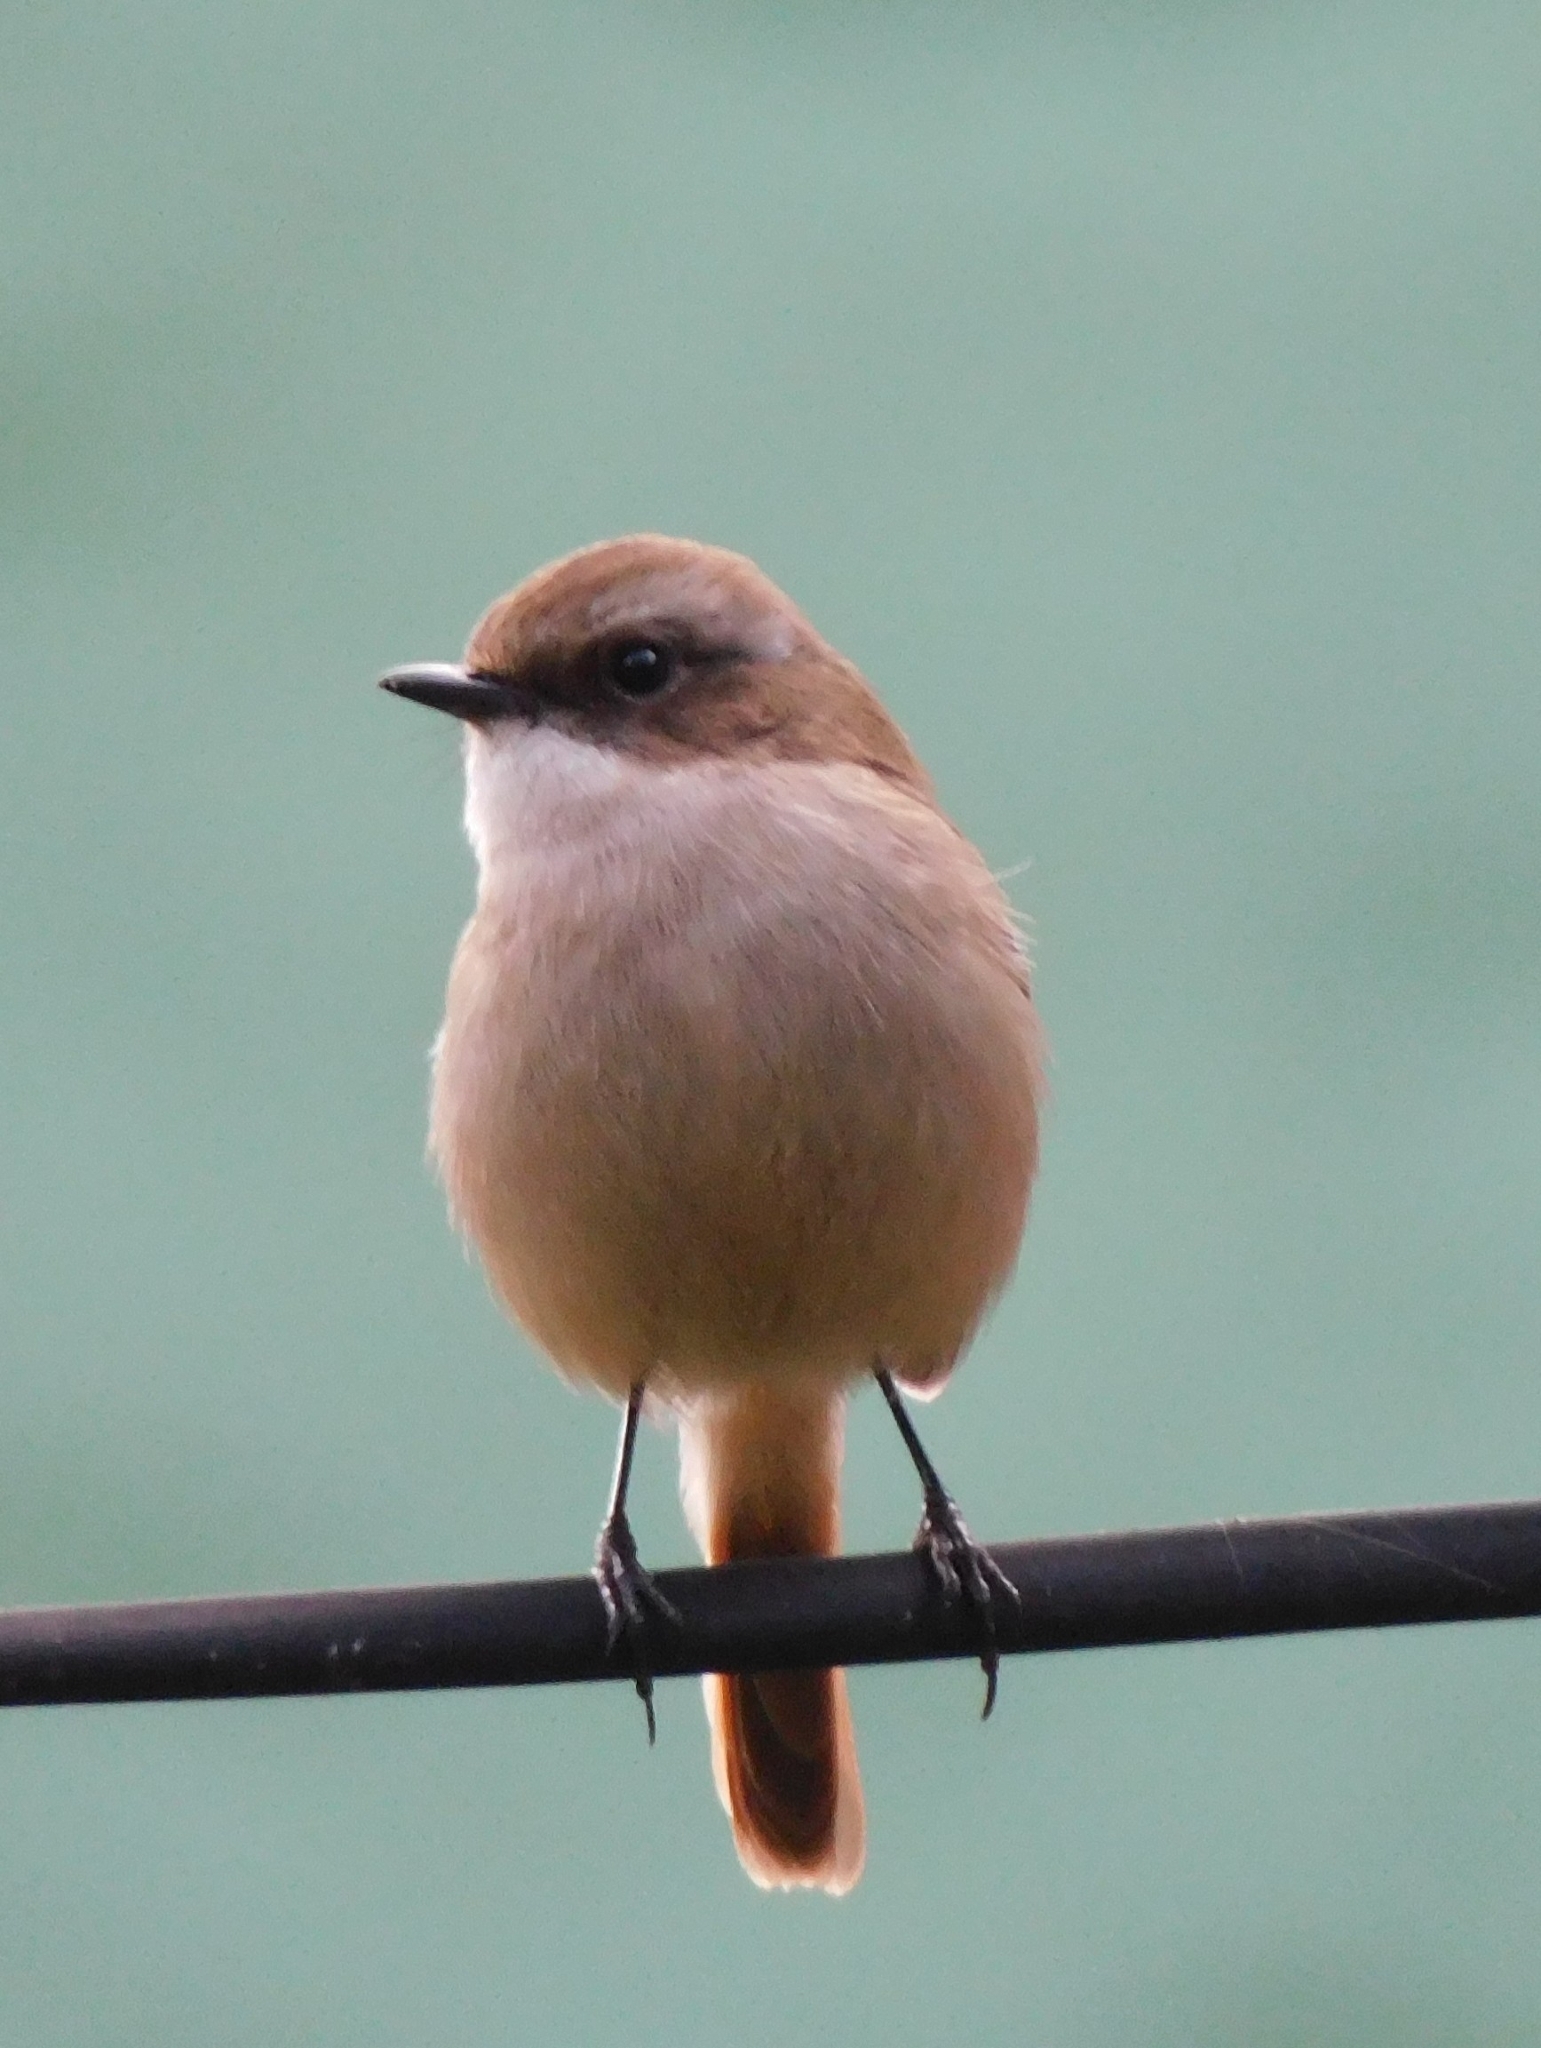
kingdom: Animalia
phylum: Chordata
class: Aves
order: Passeriformes
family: Muscicapidae
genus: Saxicola
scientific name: Saxicola ferreus
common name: Grey bush chat
